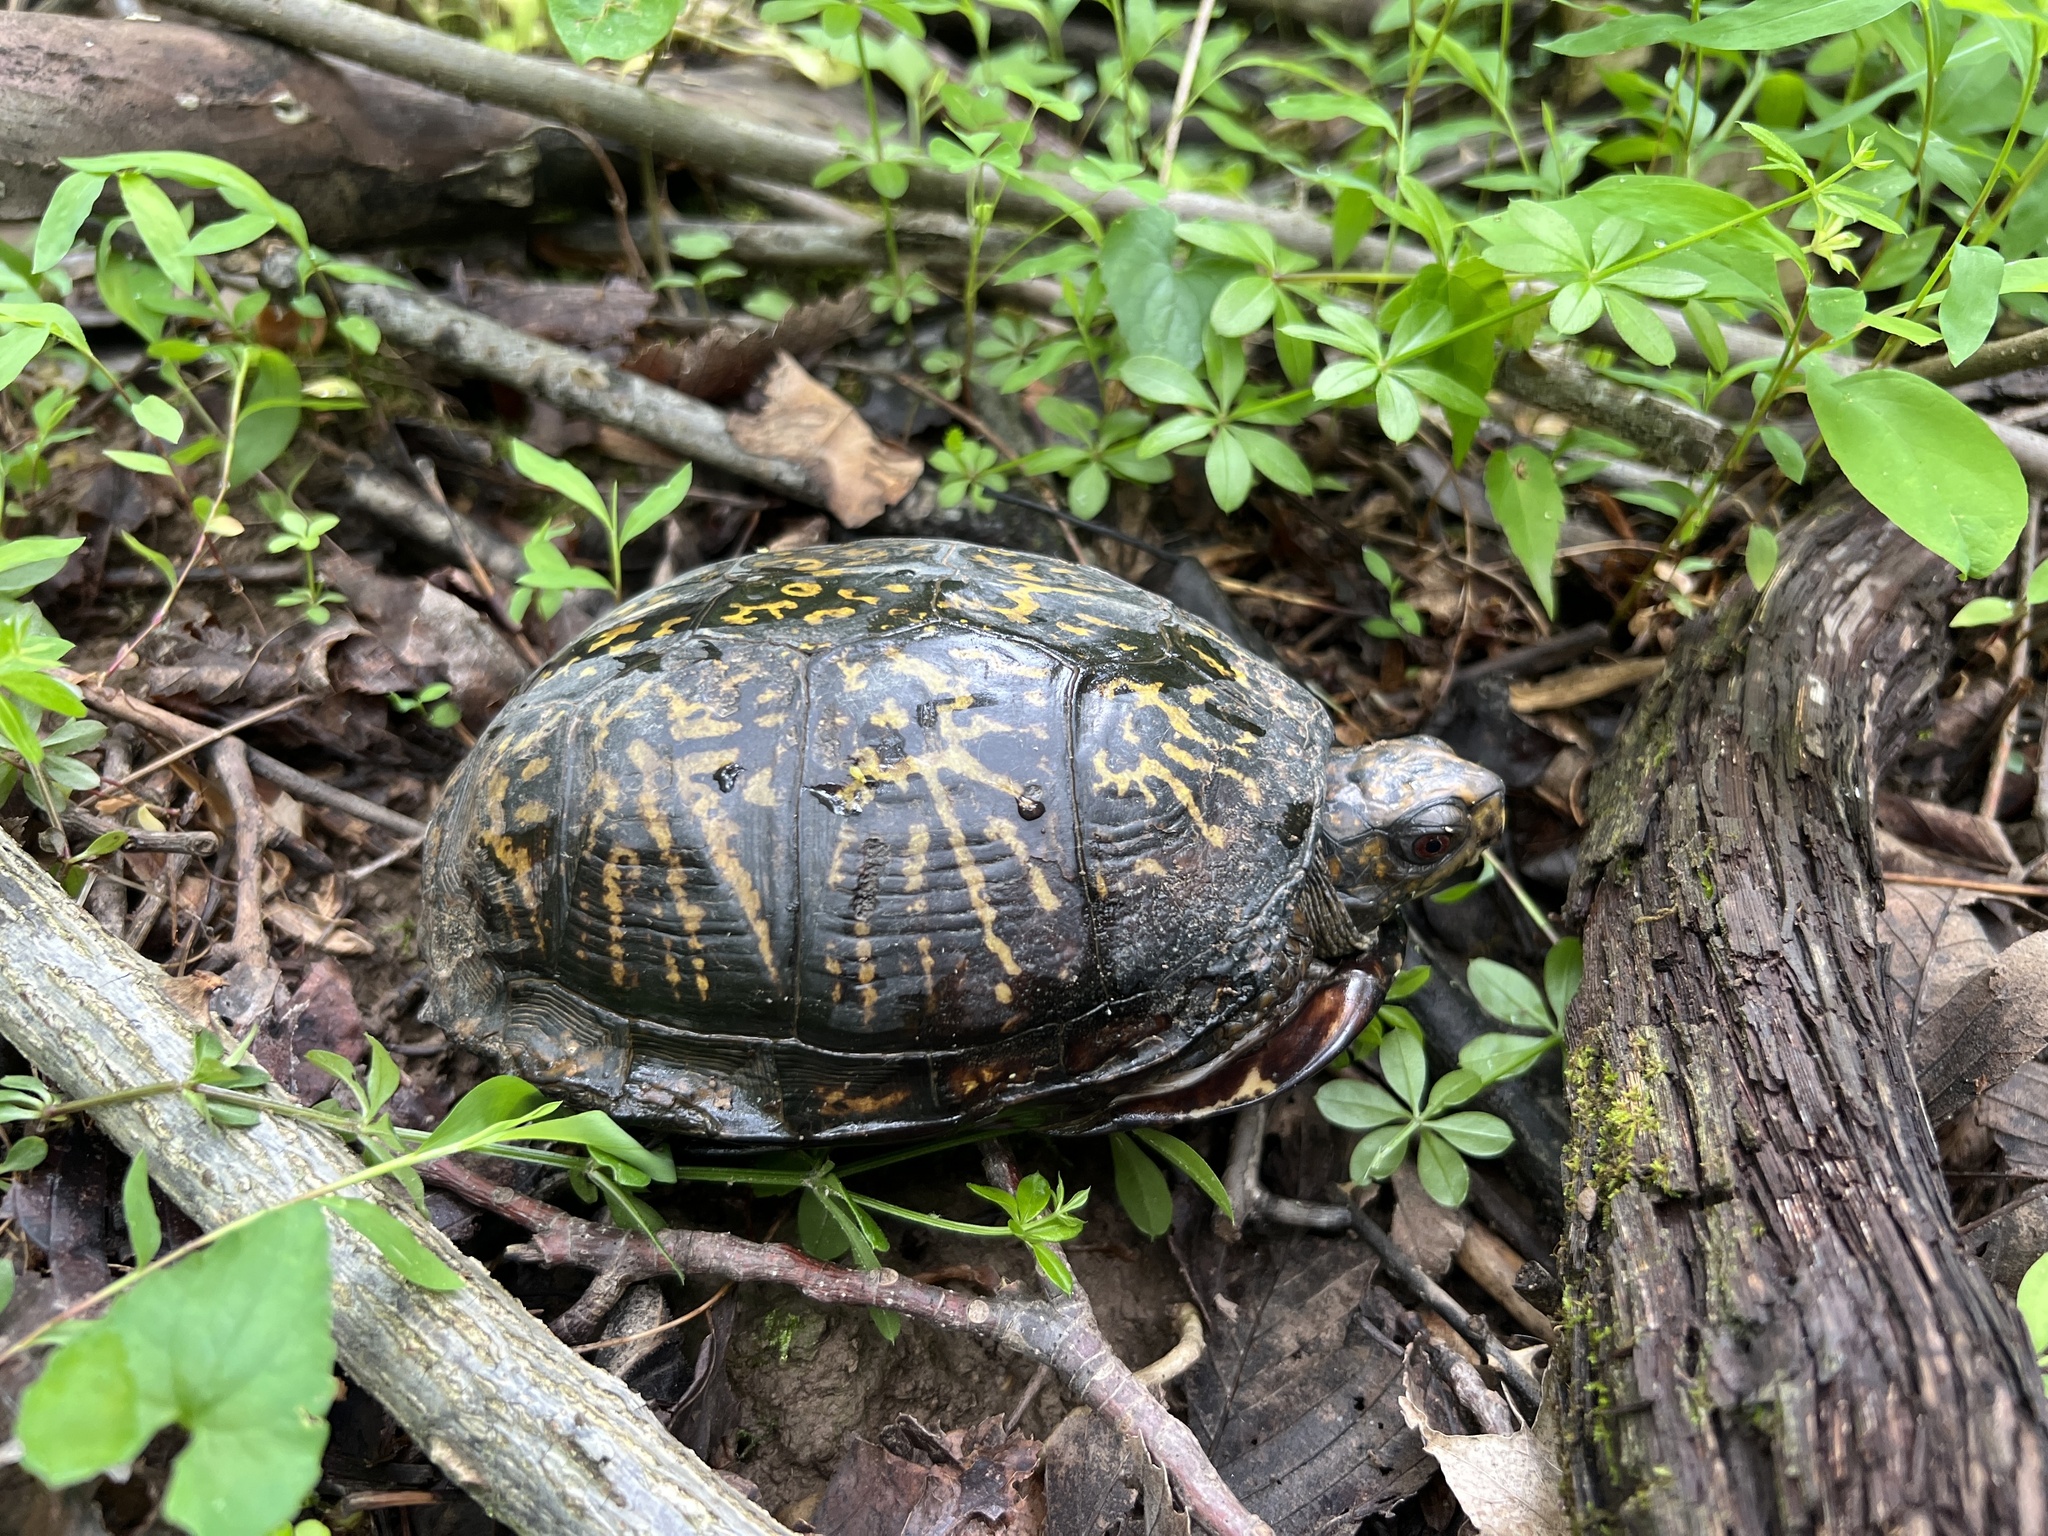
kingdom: Animalia
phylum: Chordata
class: Testudines
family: Emydidae
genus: Terrapene
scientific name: Terrapene carolina
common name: Common box turtle
